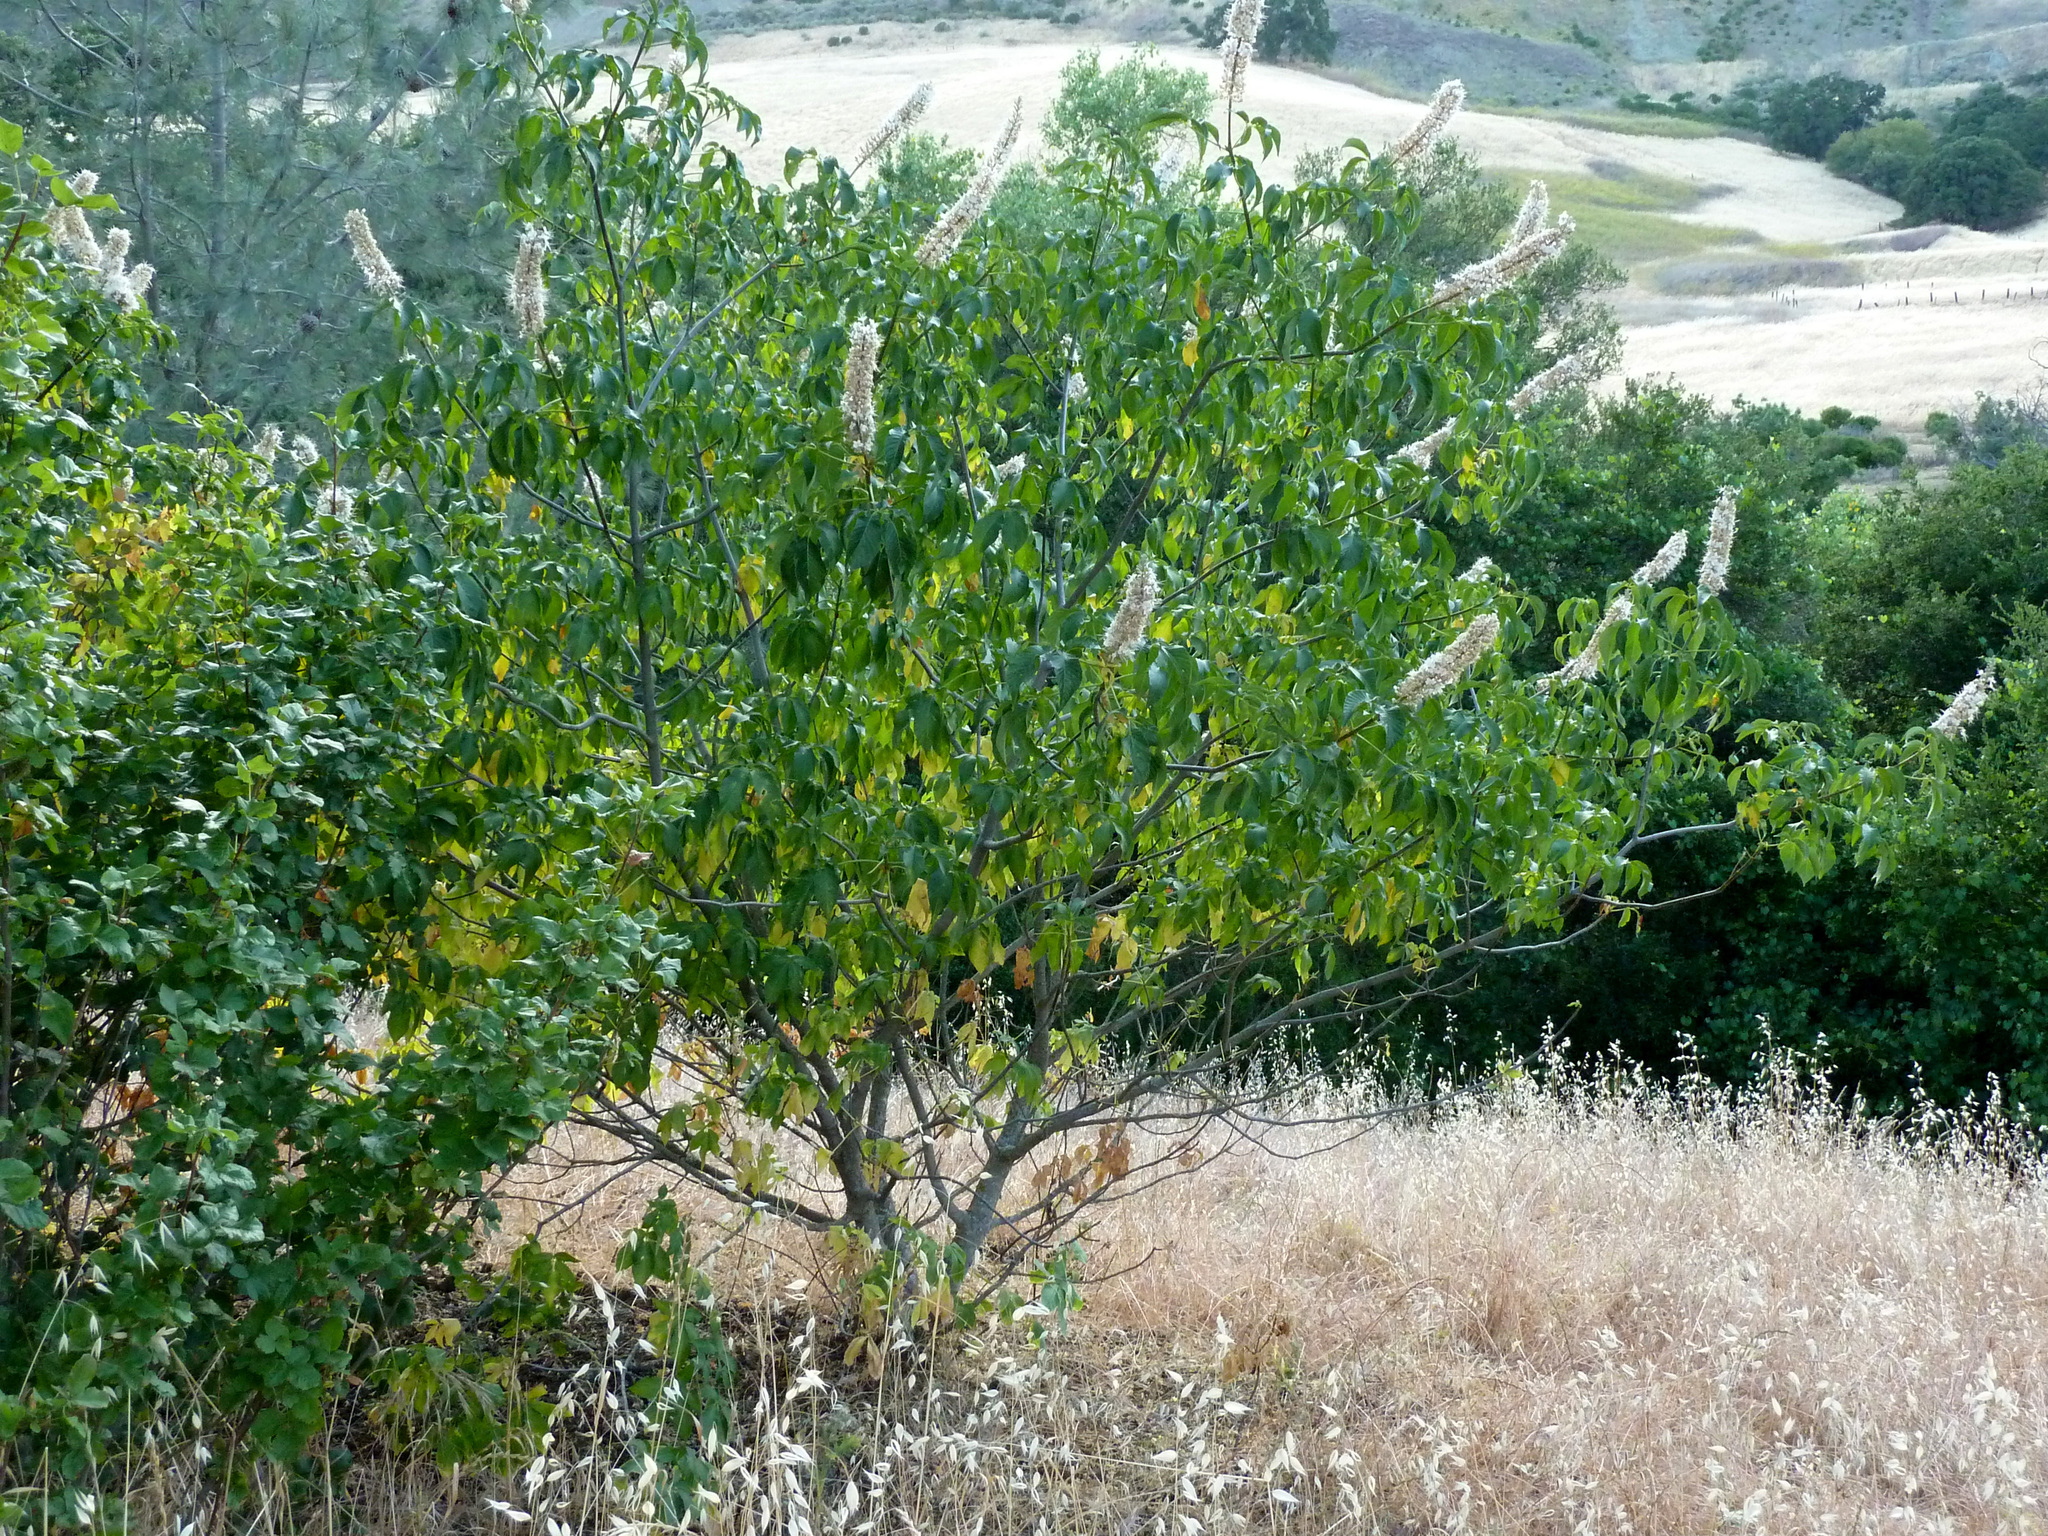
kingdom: Plantae
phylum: Tracheophyta
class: Magnoliopsida
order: Sapindales
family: Sapindaceae
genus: Aesculus
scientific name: Aesculus californica
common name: California buckeye
